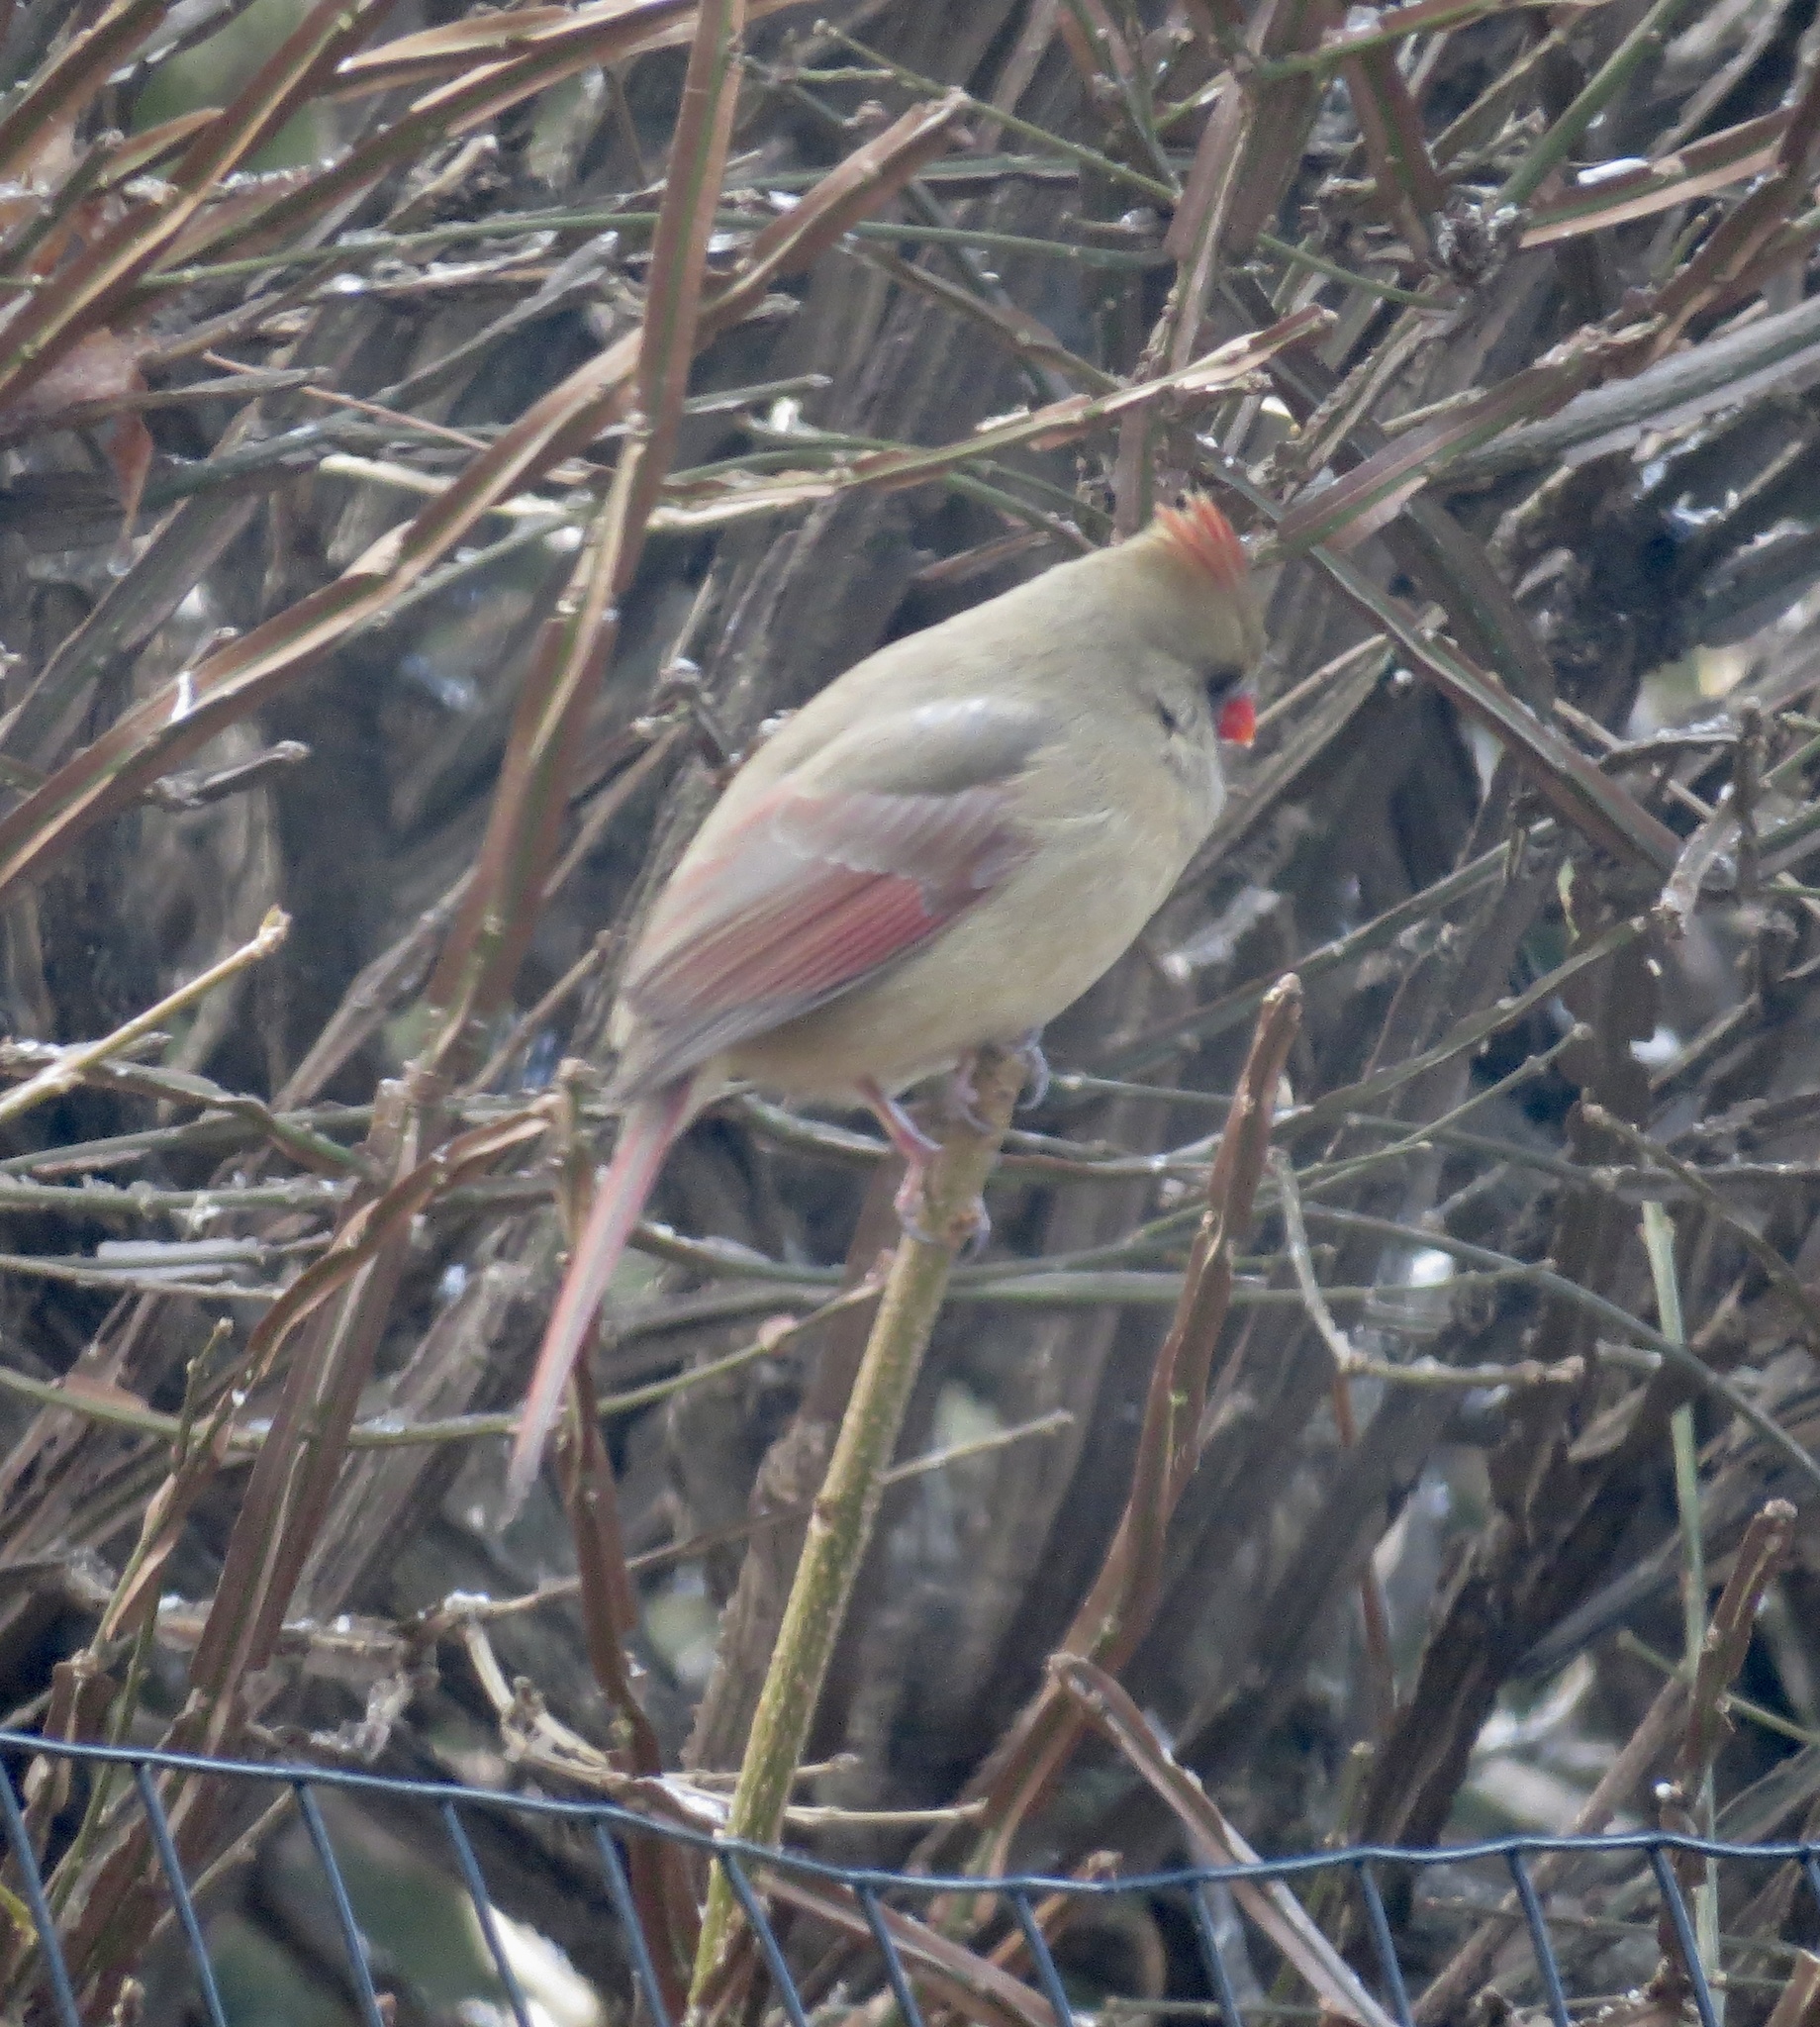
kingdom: Animalia
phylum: Chordata
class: Aves
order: Passeriformes
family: Cardinalidae
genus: Cardinalis
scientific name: Cardinalis cardinalis
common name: Northern cardinal
